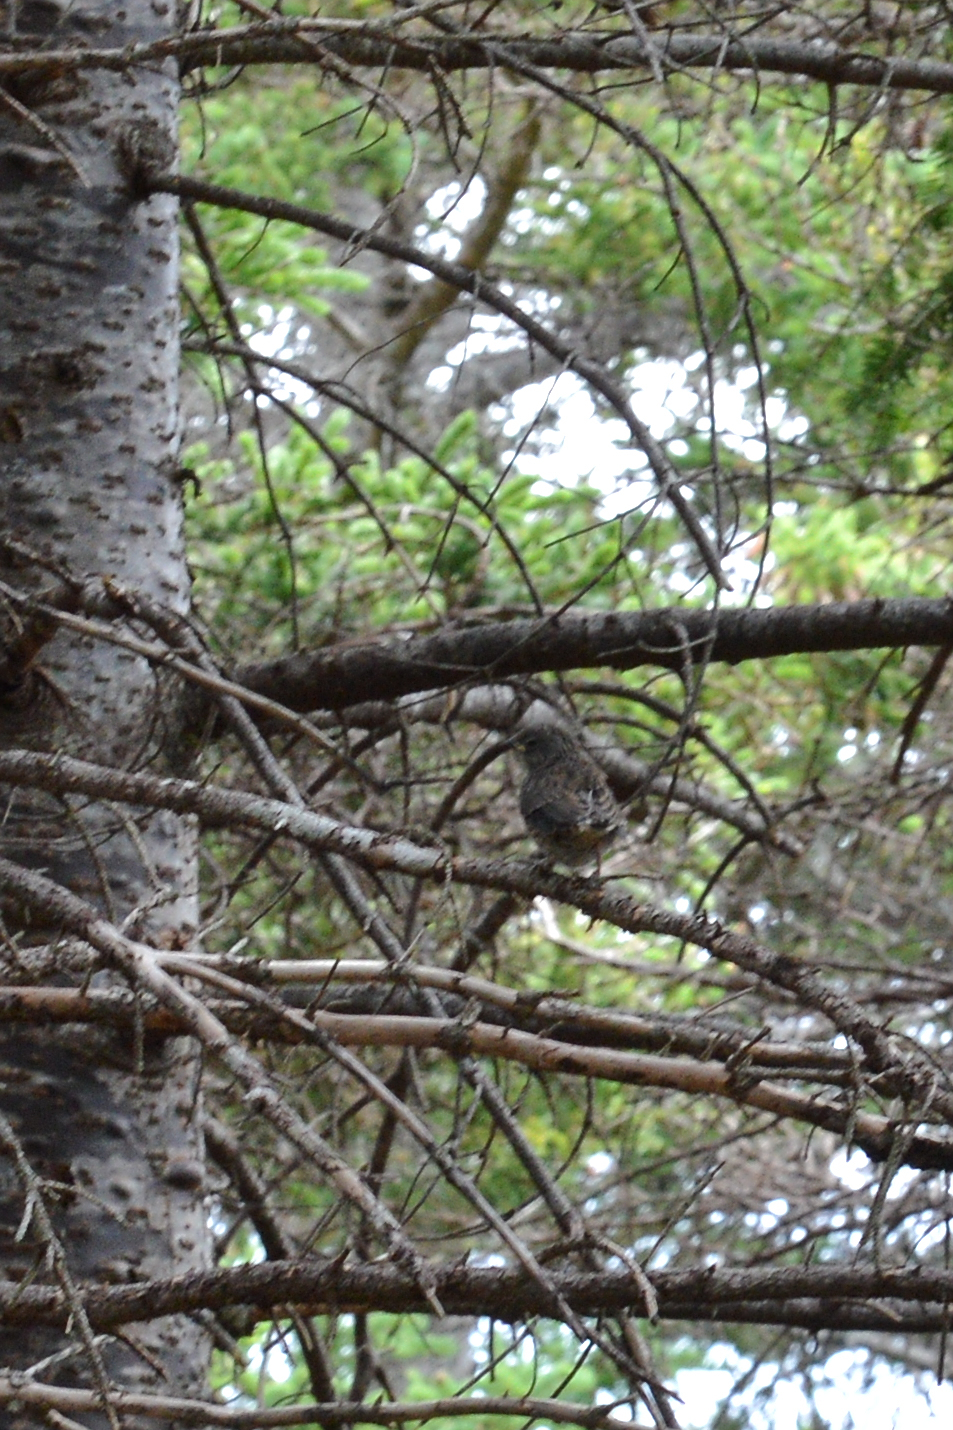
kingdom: Animalia
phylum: Chordata
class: Aves
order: Passeriformes
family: Passerellidae
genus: Junco
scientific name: Junco hyemalis
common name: Dark-eyed junco
